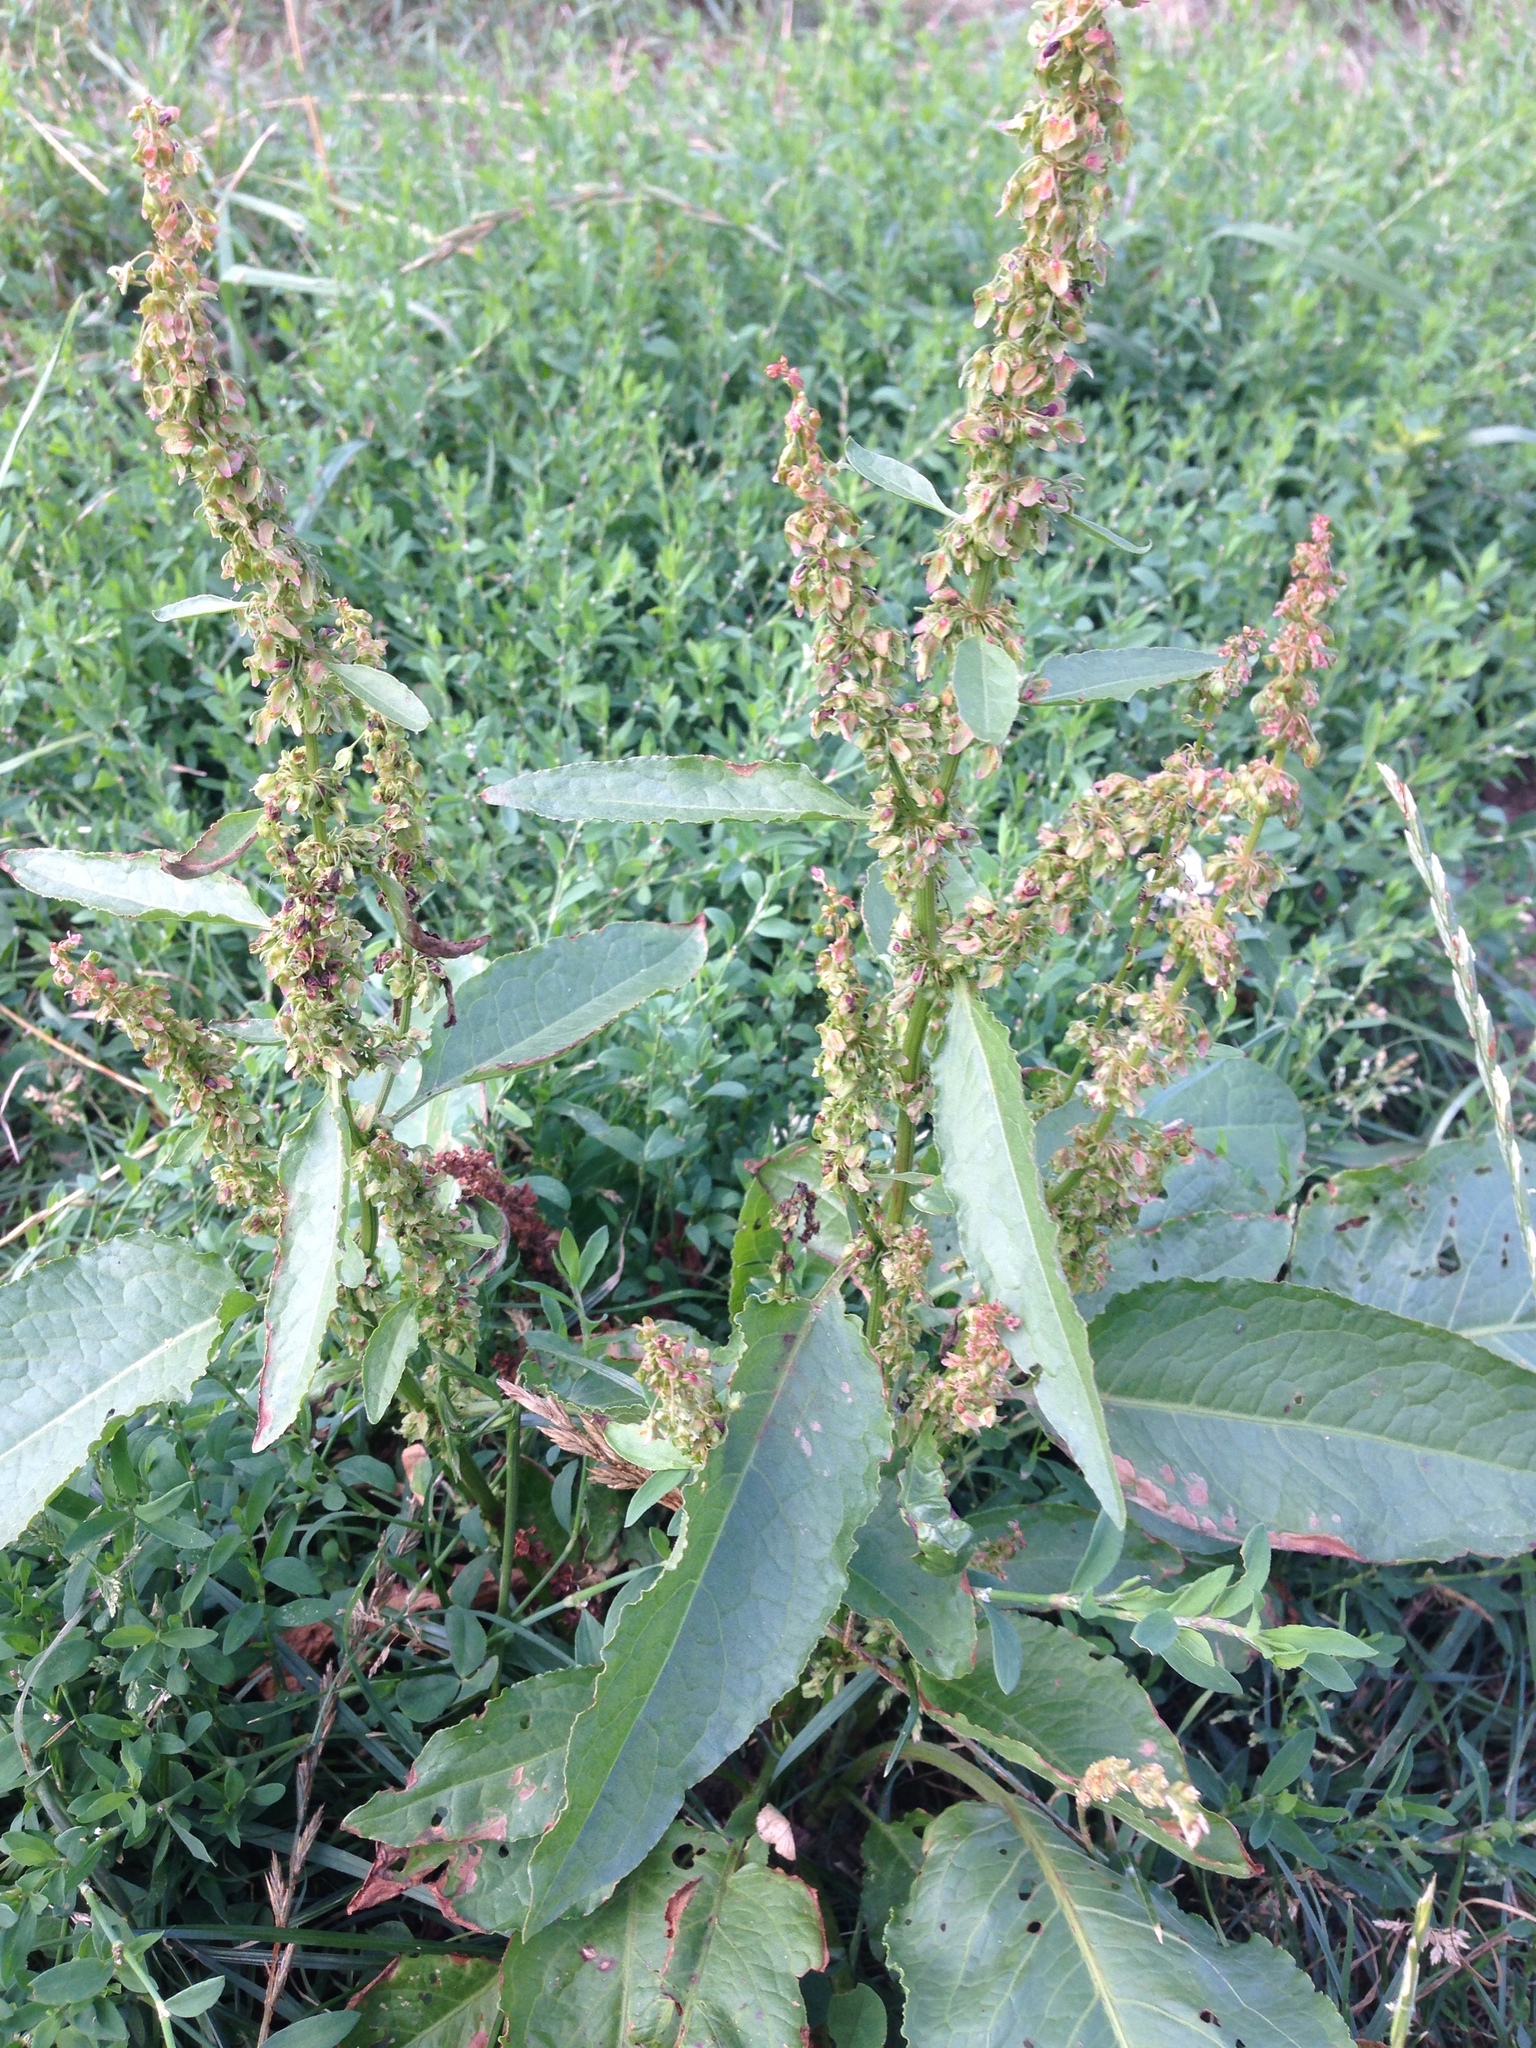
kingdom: Plantae
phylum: Tracheophyta
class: Magnoliopsida
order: Caryophyllales
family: Polygonaceae
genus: Rumex
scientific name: Rumex obtusifolius
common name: Bitter dock
